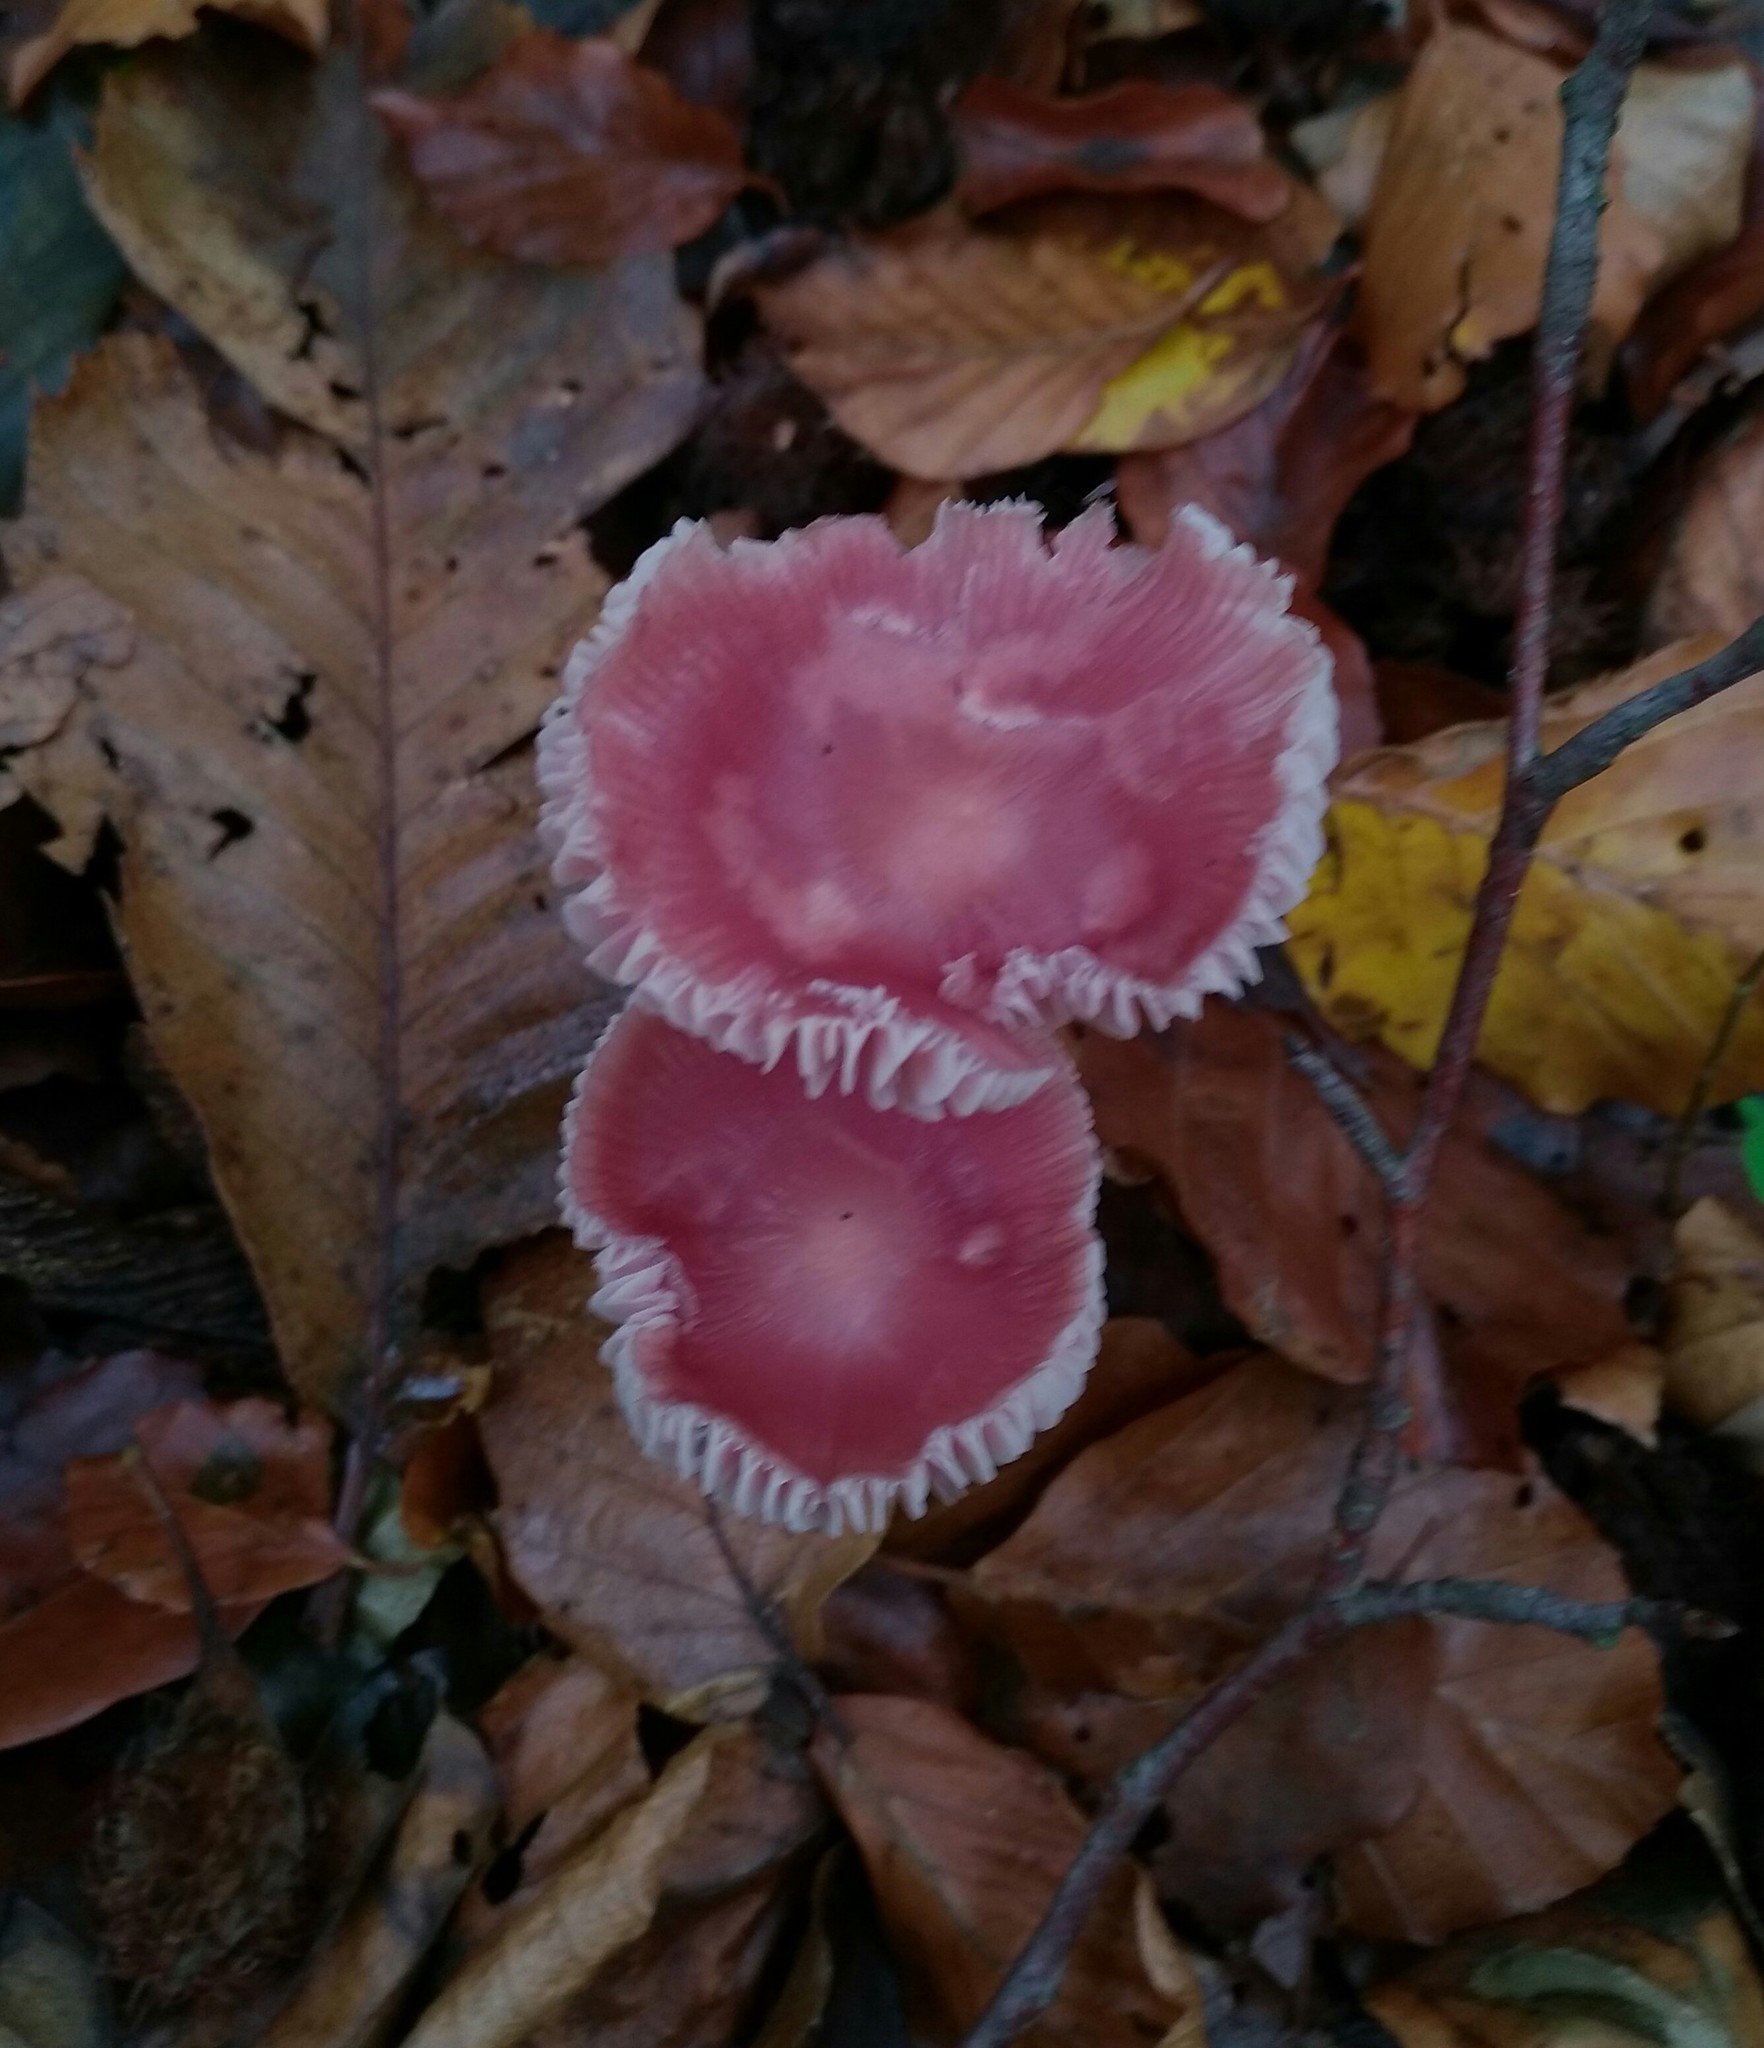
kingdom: Fungi
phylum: Basidiomycota
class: Agaricomycetes
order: Agaricales
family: Mycenaceae
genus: Mycena
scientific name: Mycena rosea
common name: Rosy bonnet
